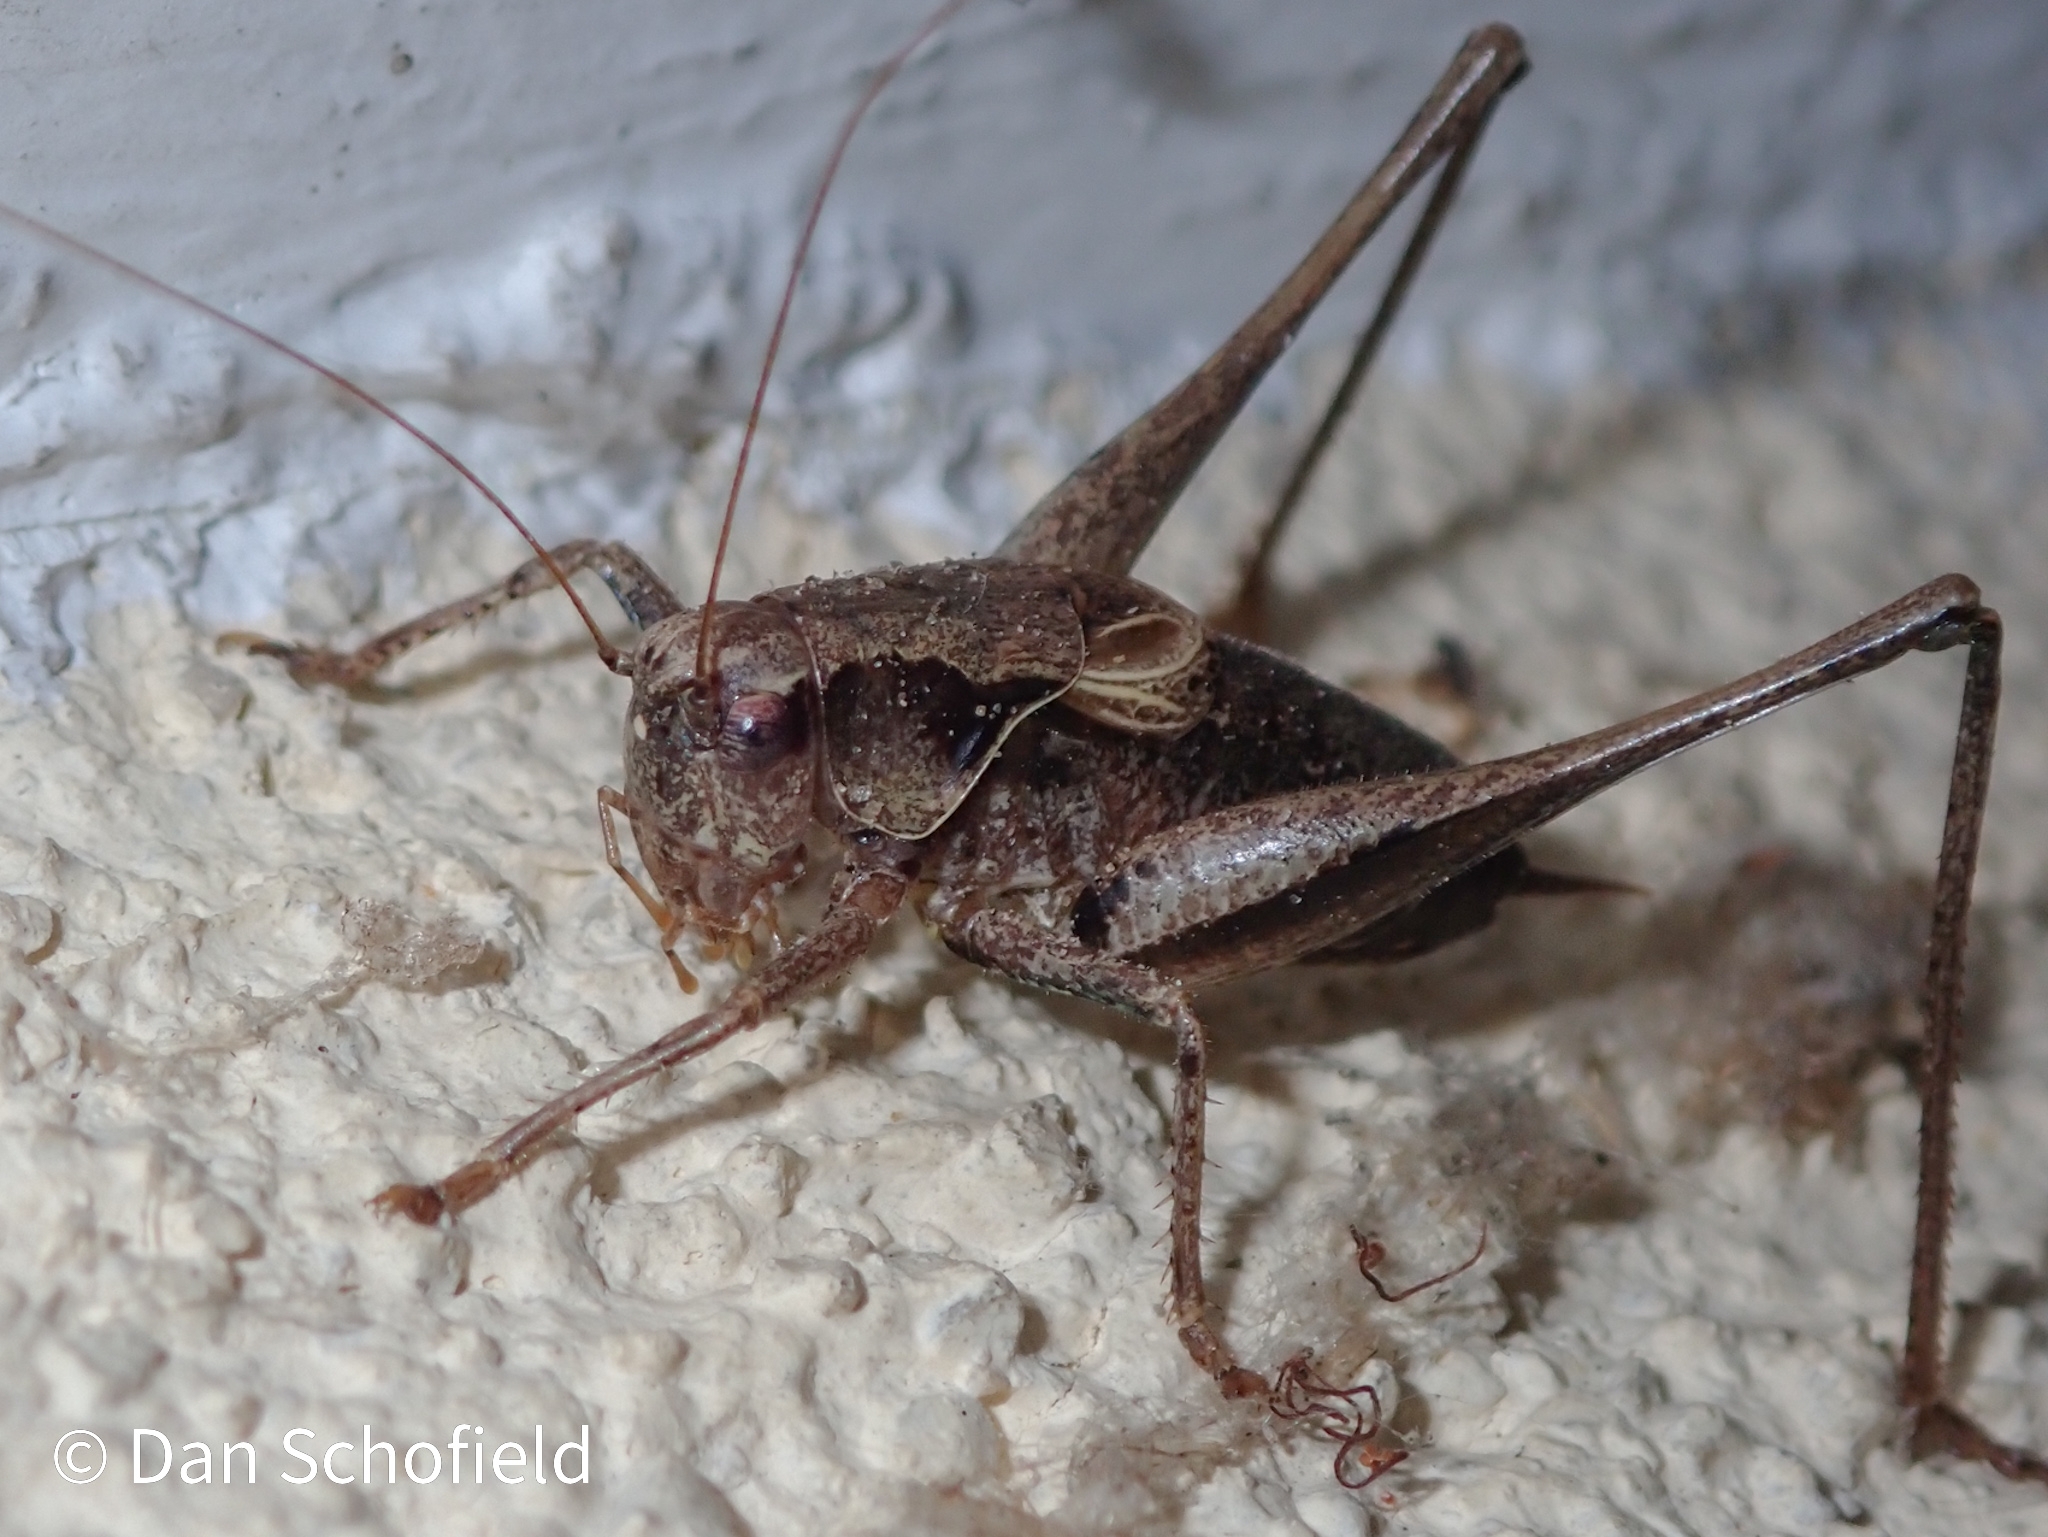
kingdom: Animalia
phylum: Arthropoda
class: Insecta
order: Orthoptera
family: Tettigoniidae
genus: Pholidoptera
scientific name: Pholidoptera griseoaptera
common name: Dark bush-cricket
